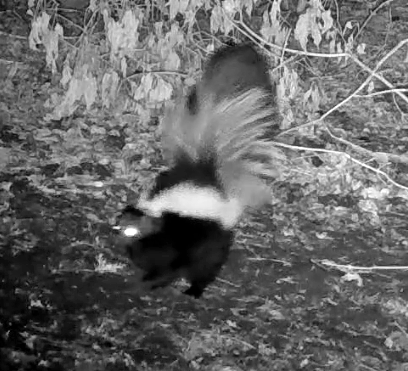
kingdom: Animalia
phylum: Chordata
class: Mammalia
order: Carnivora
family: Mephitidae
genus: Mephitis
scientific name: Mephitis mephitis
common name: Striped skunk
